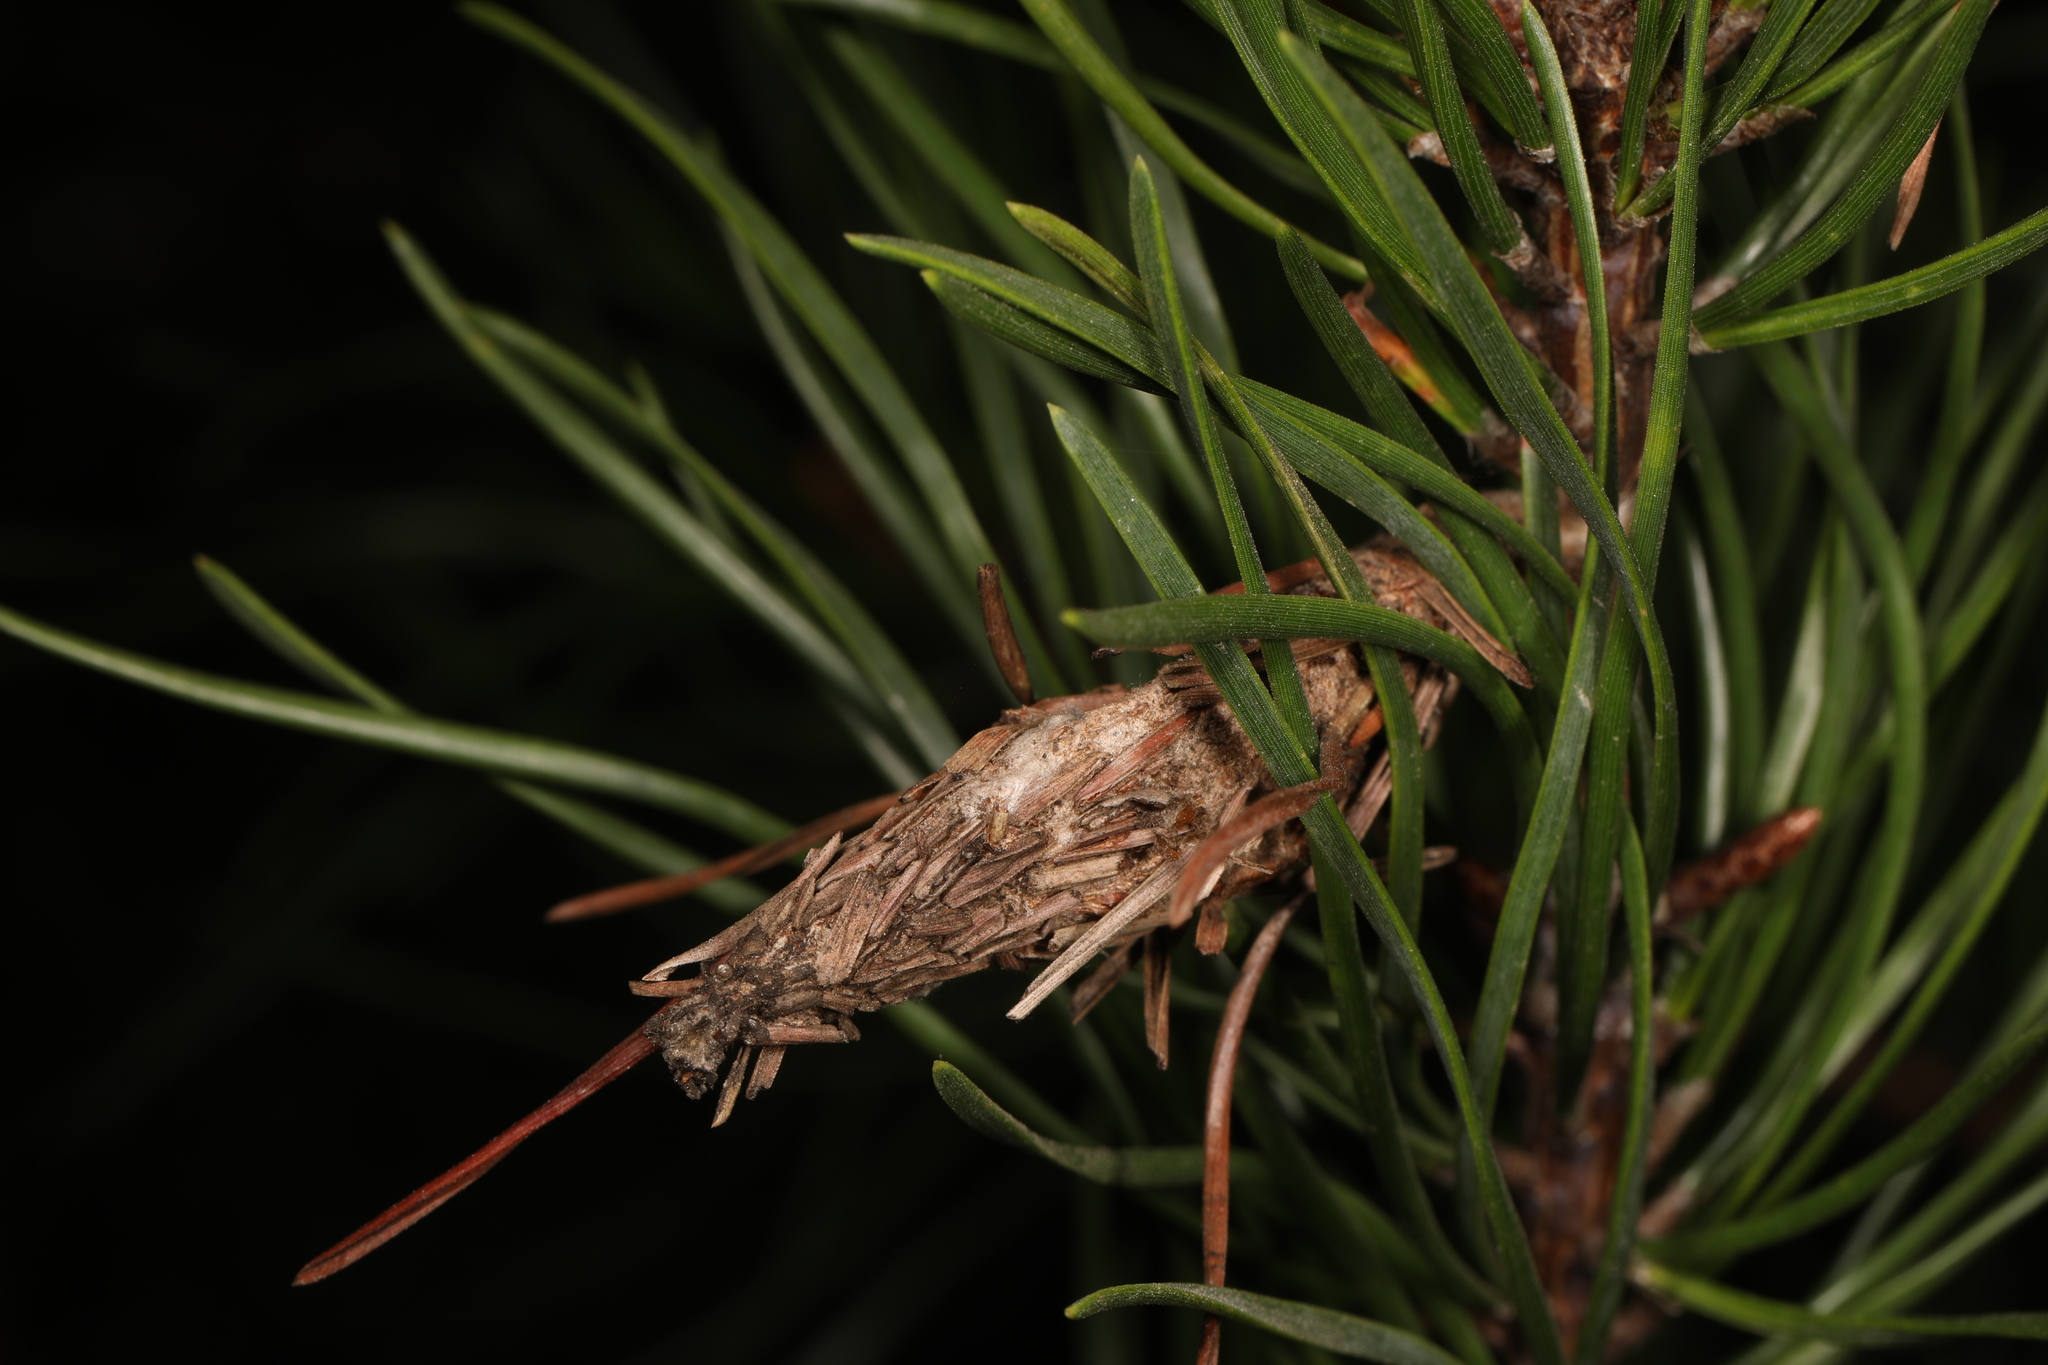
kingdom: Animalia
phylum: Arthropoda
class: Insecta
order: Lepidoptera
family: Psychidae
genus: Thyridopteryx
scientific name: Thyridopteryx ephemeraeformis
